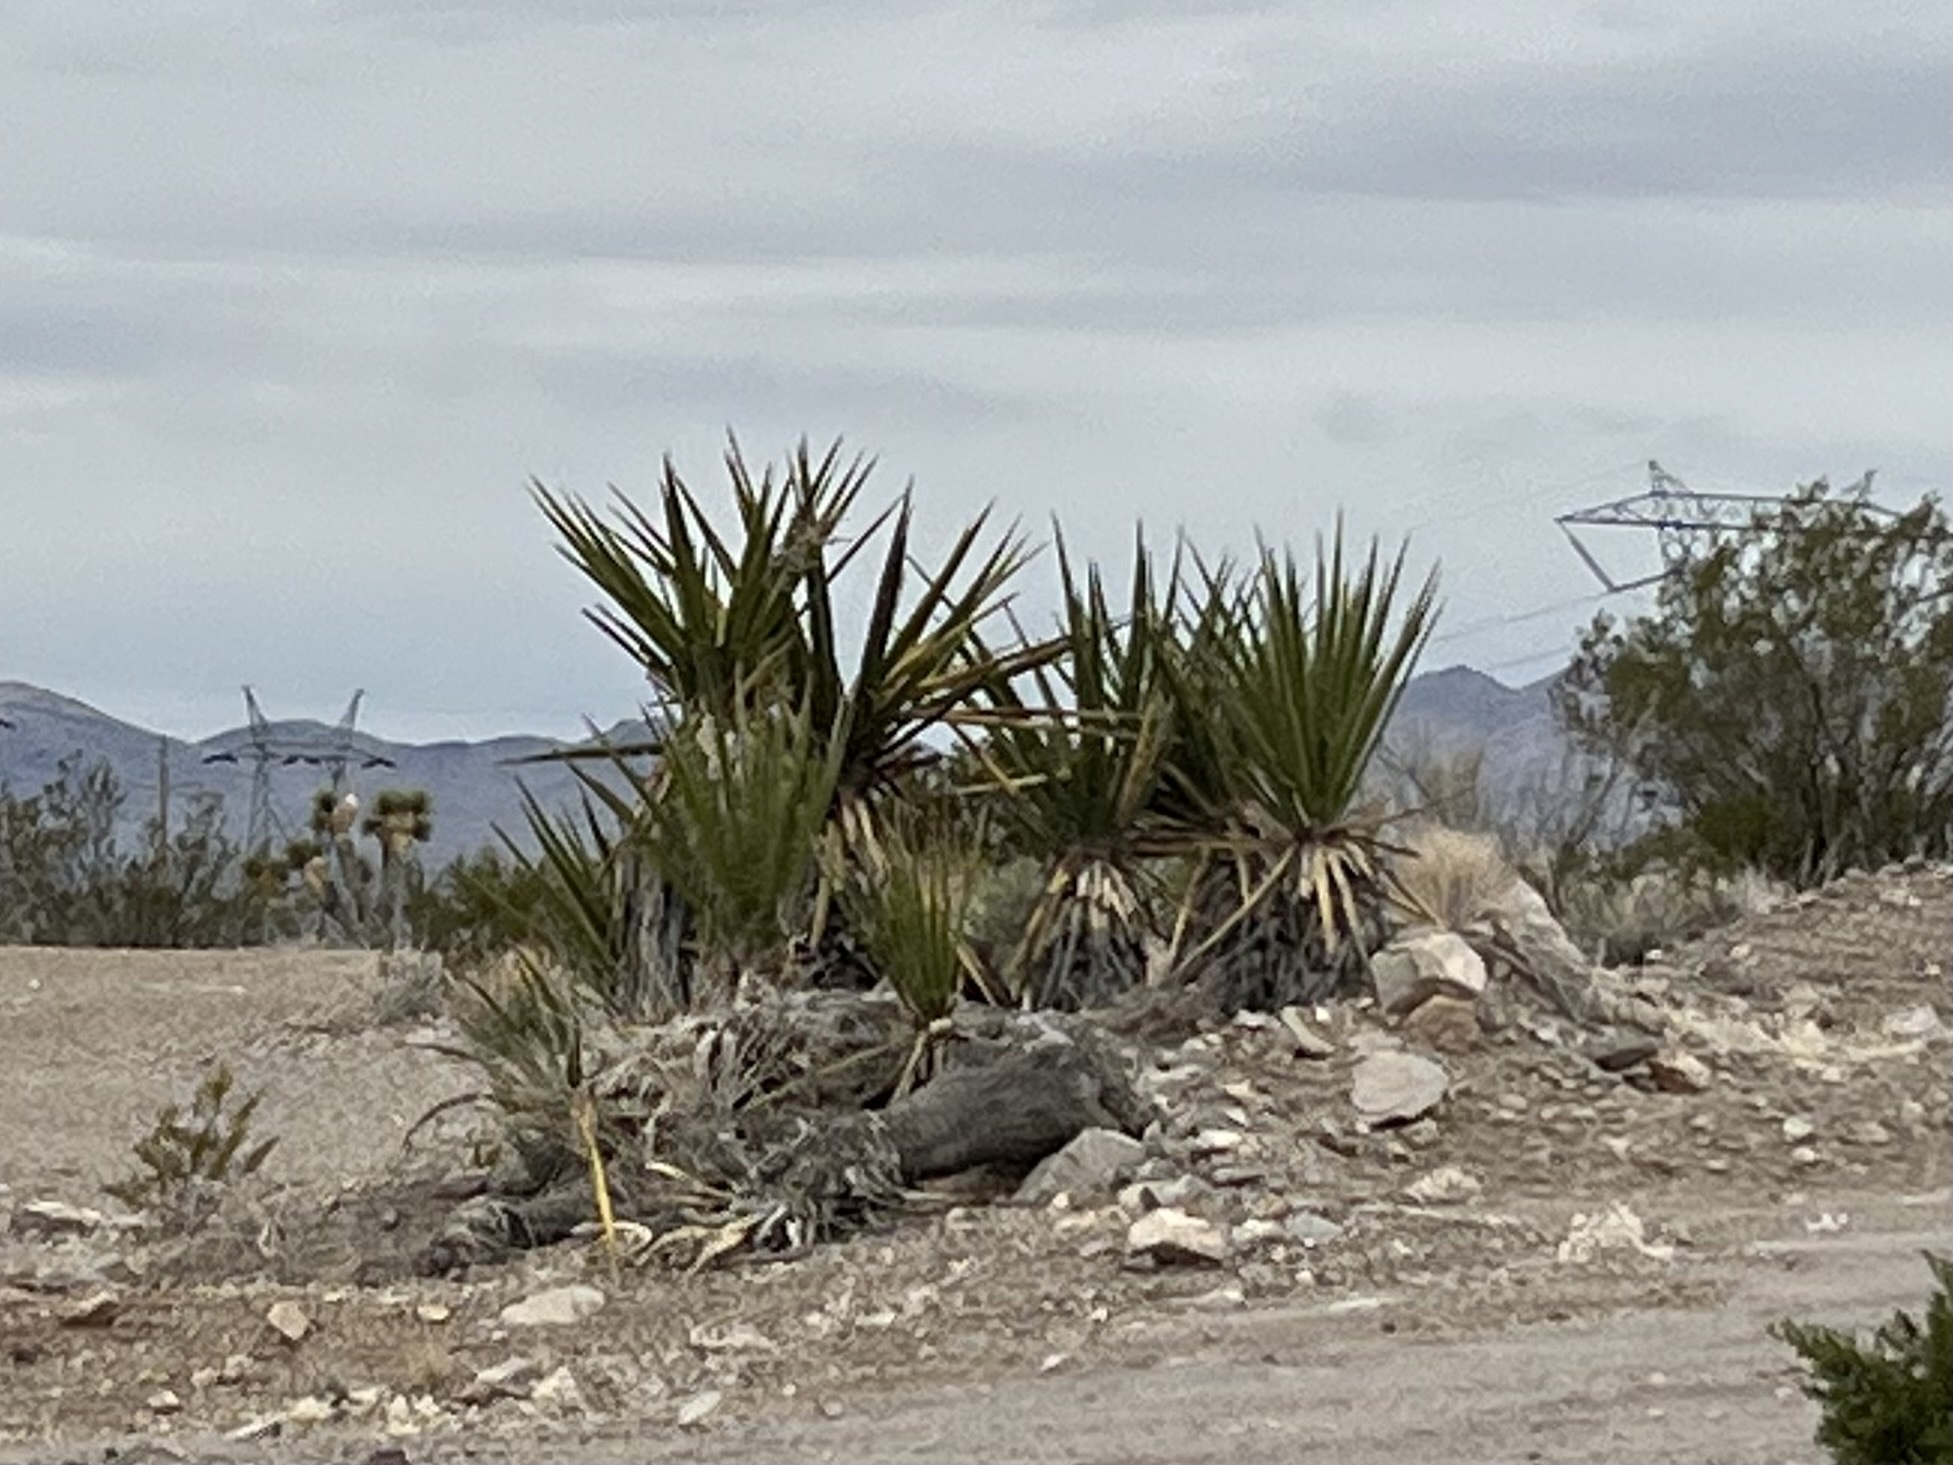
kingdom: Plantae
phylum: Tracheophyta
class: Liliopsida
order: Asparagales
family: Asparagaceae
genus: Yucca
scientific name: Yucca schidigera
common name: Mojave yucca
